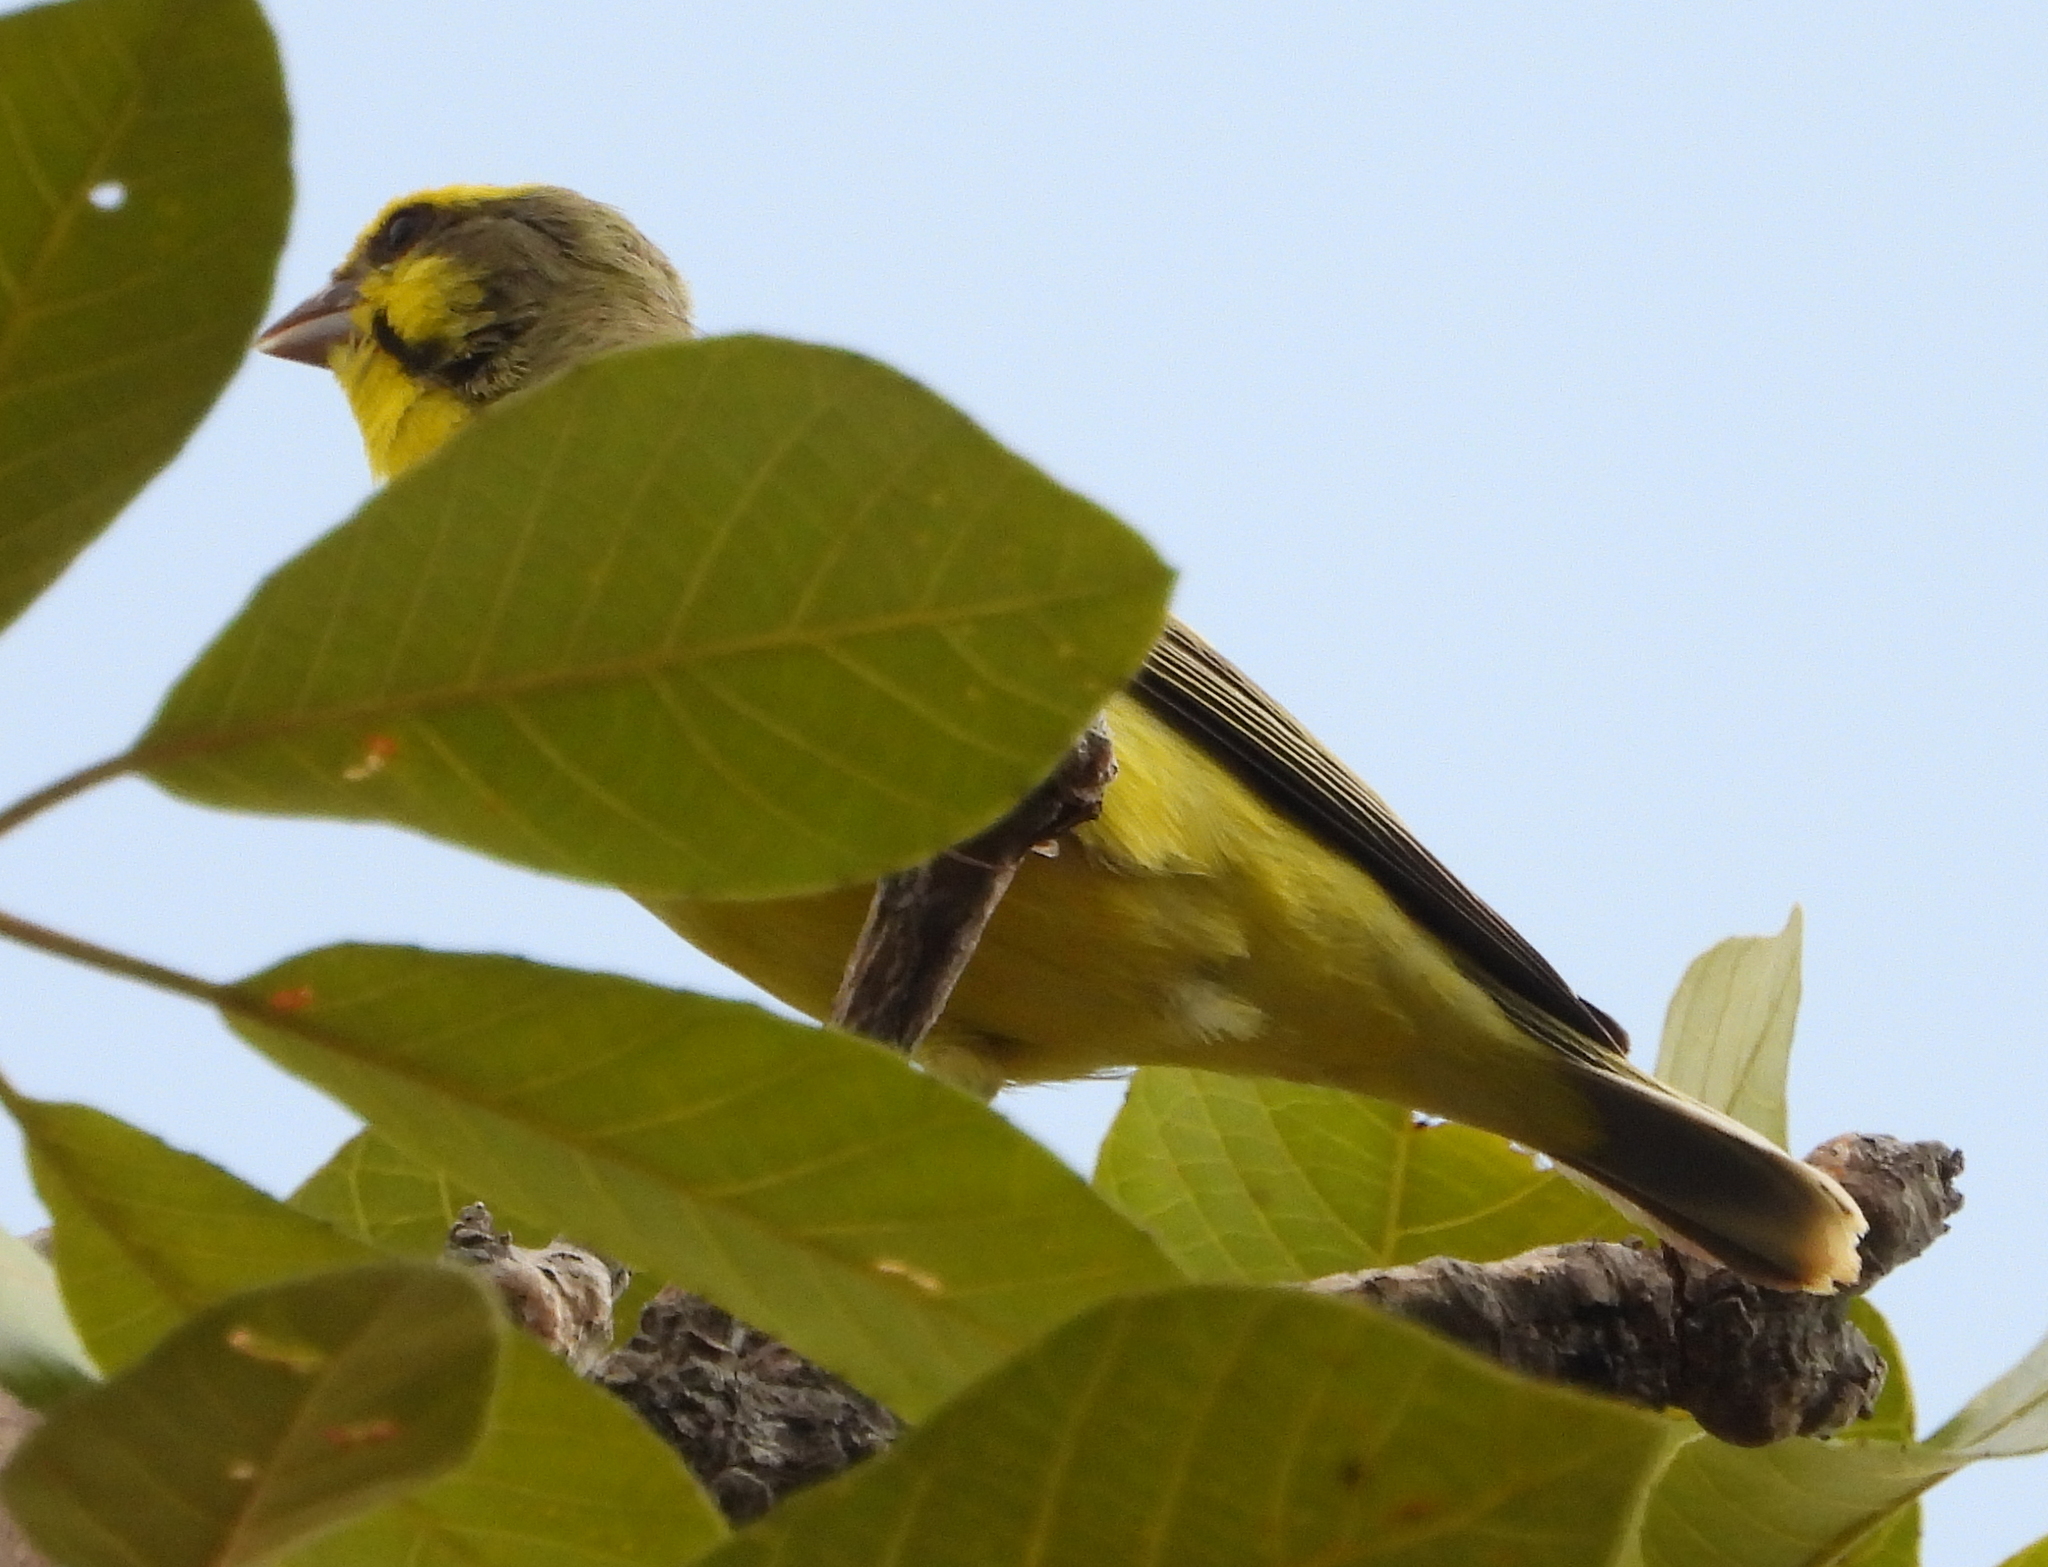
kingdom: Animalia
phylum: Chordata
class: Aves
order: Passeriformes
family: Fringillidae
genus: Crithagra
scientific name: Crithagra mozambica
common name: Yellow-fronted canary
